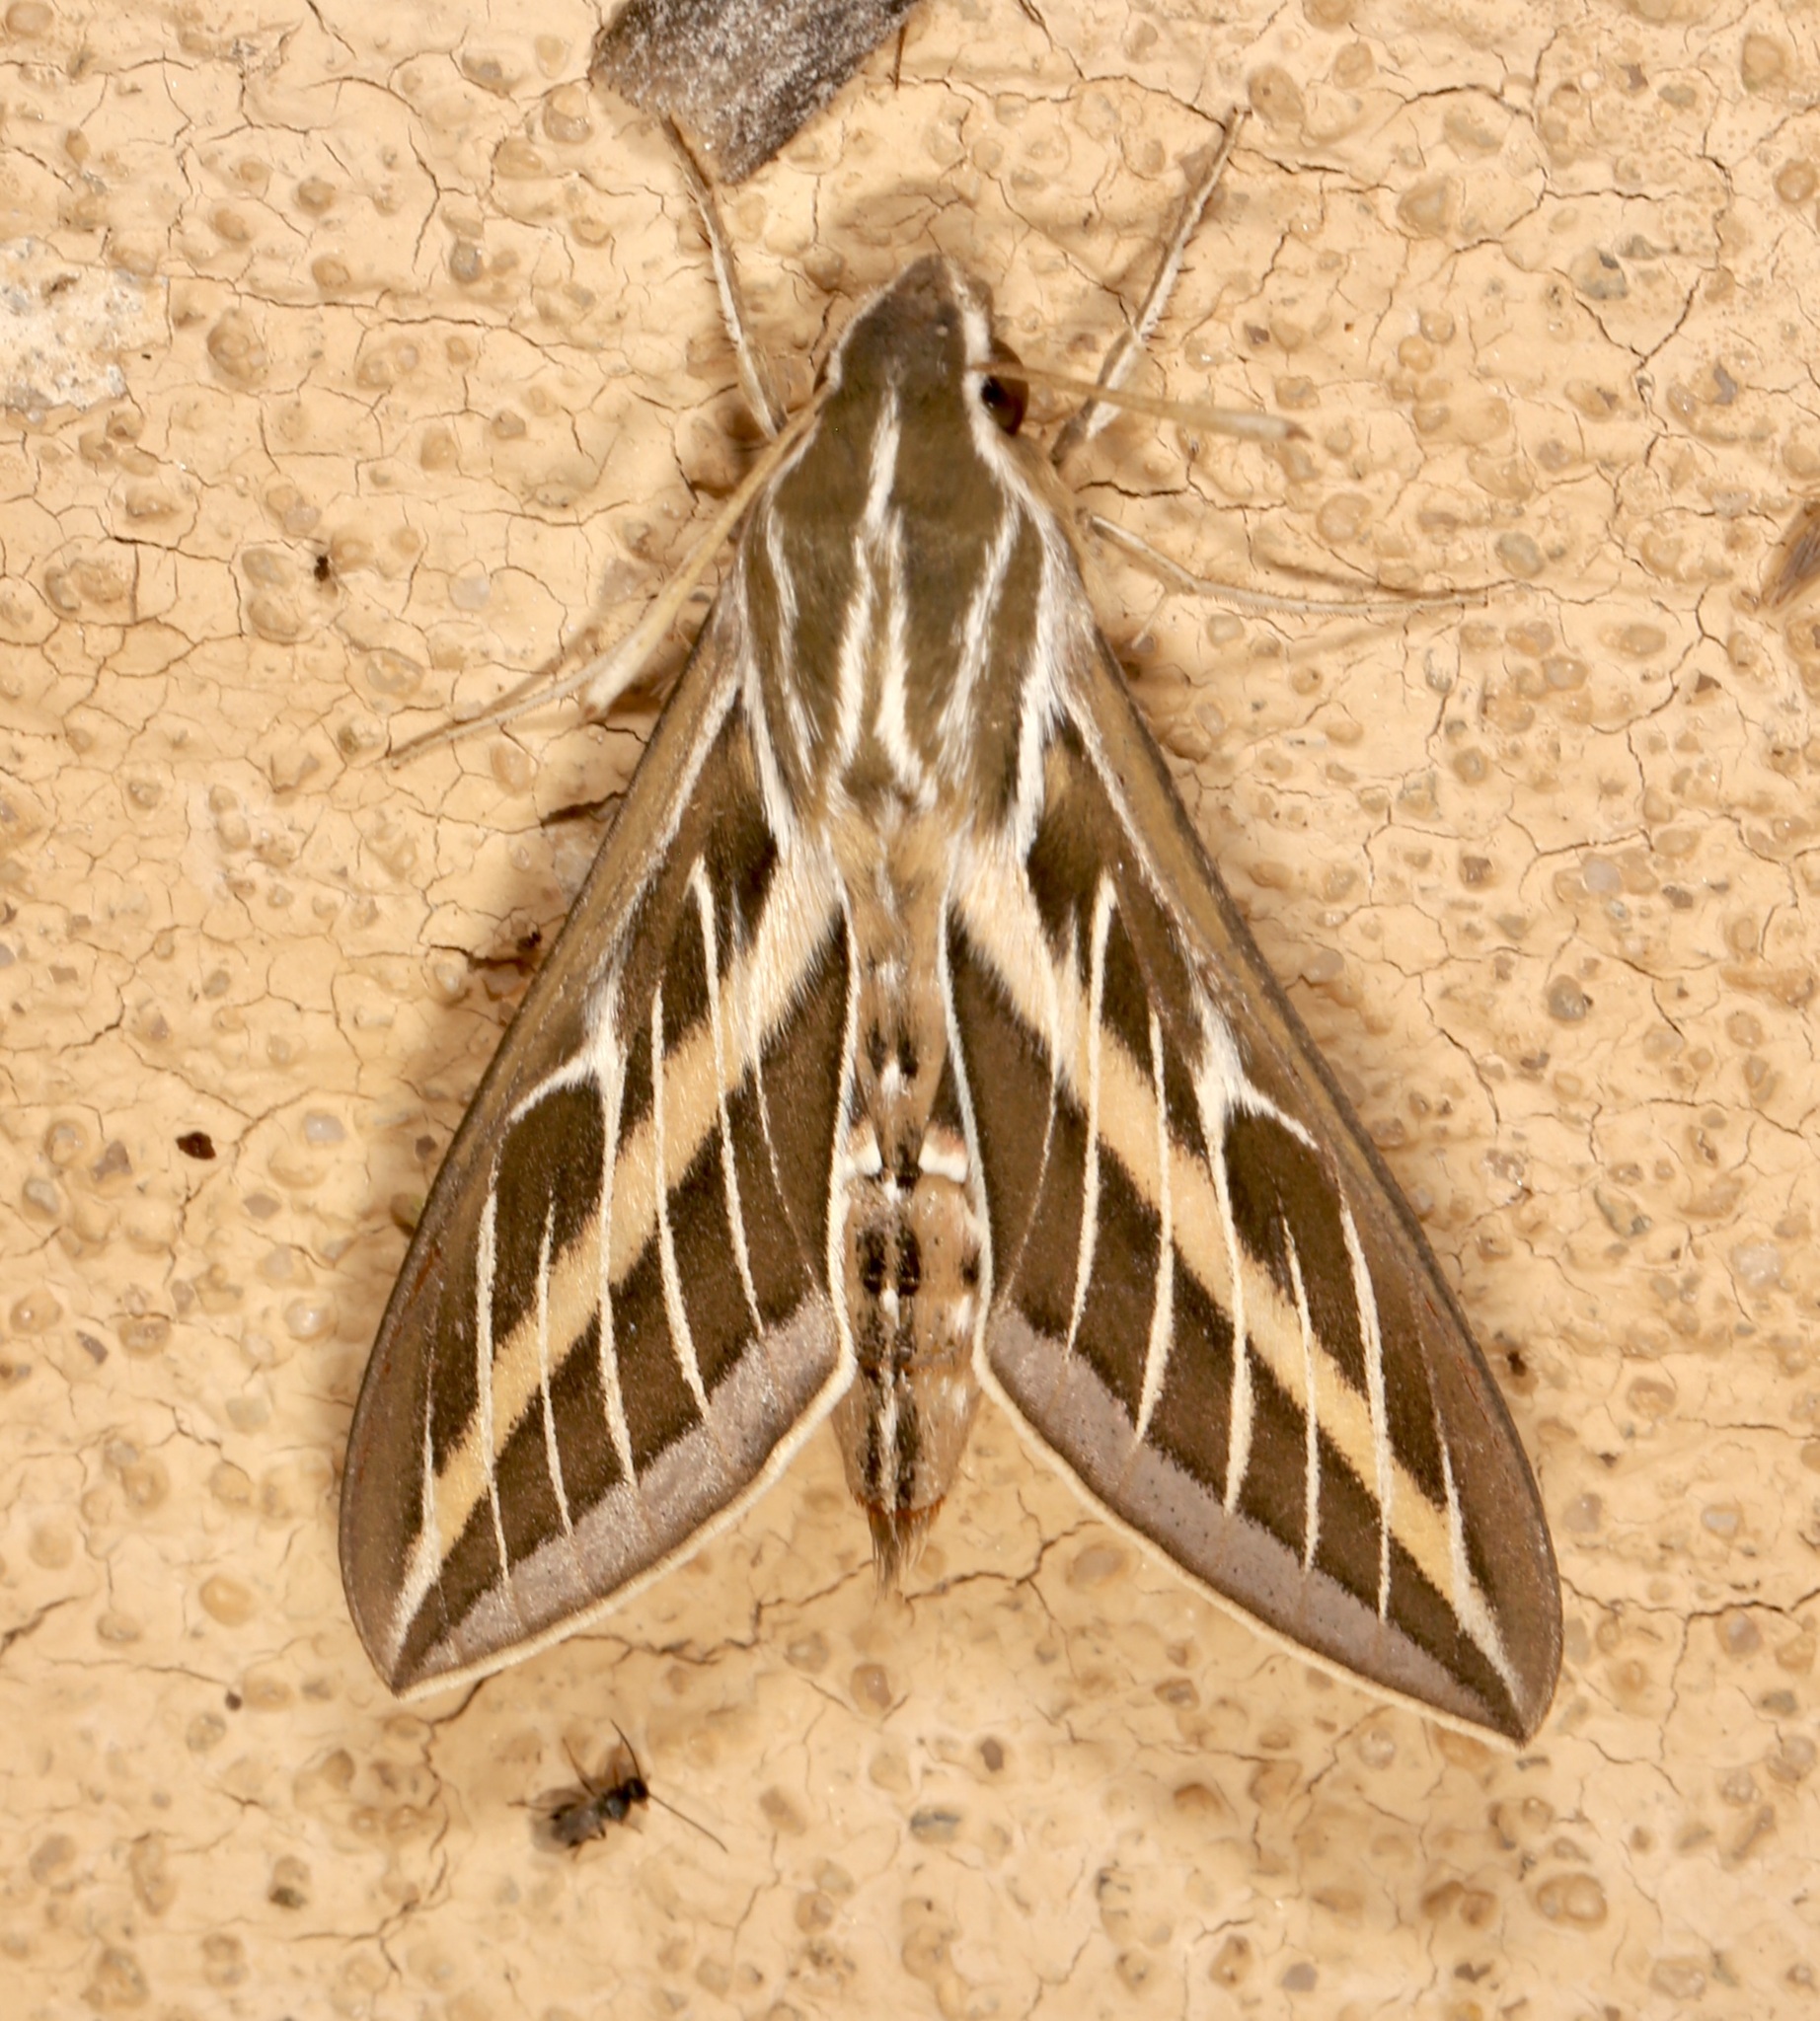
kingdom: Animalia
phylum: Arthropoda
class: Insecta
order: Lepidoptera
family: Sphingidae
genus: Hyles
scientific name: Hyles lineata
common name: White-lined sphinx
